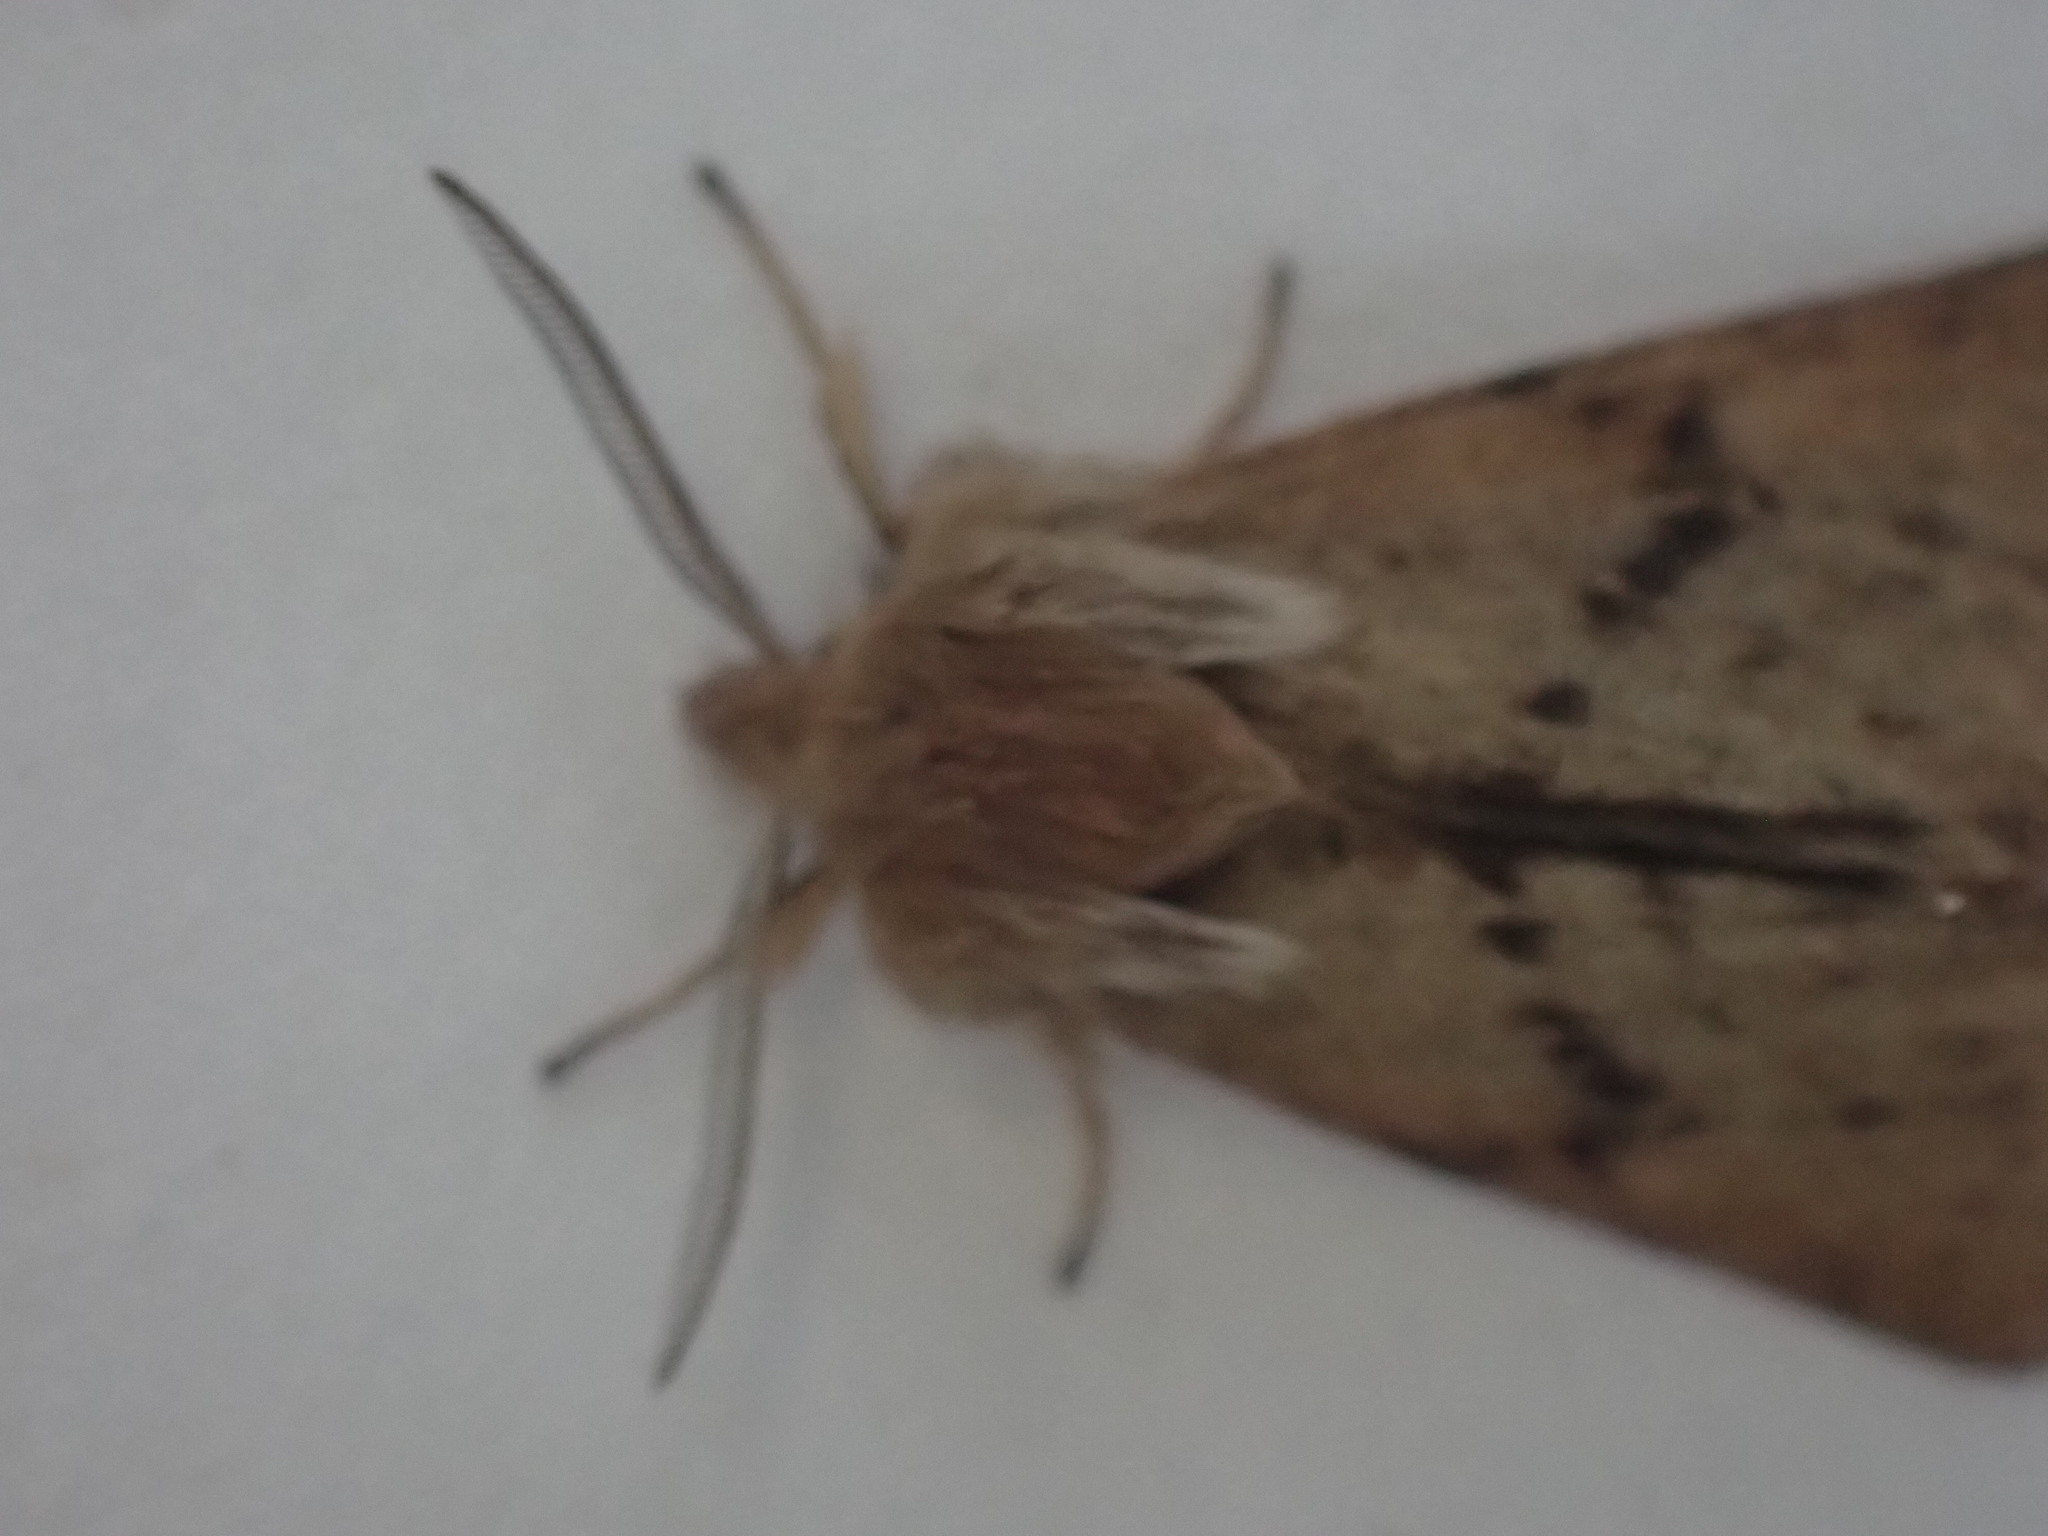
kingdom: Animalia
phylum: Arthropoda
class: Insecta
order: Lepidoptera
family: Erebidae
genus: Spilosoma
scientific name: Spilosoma vagans
